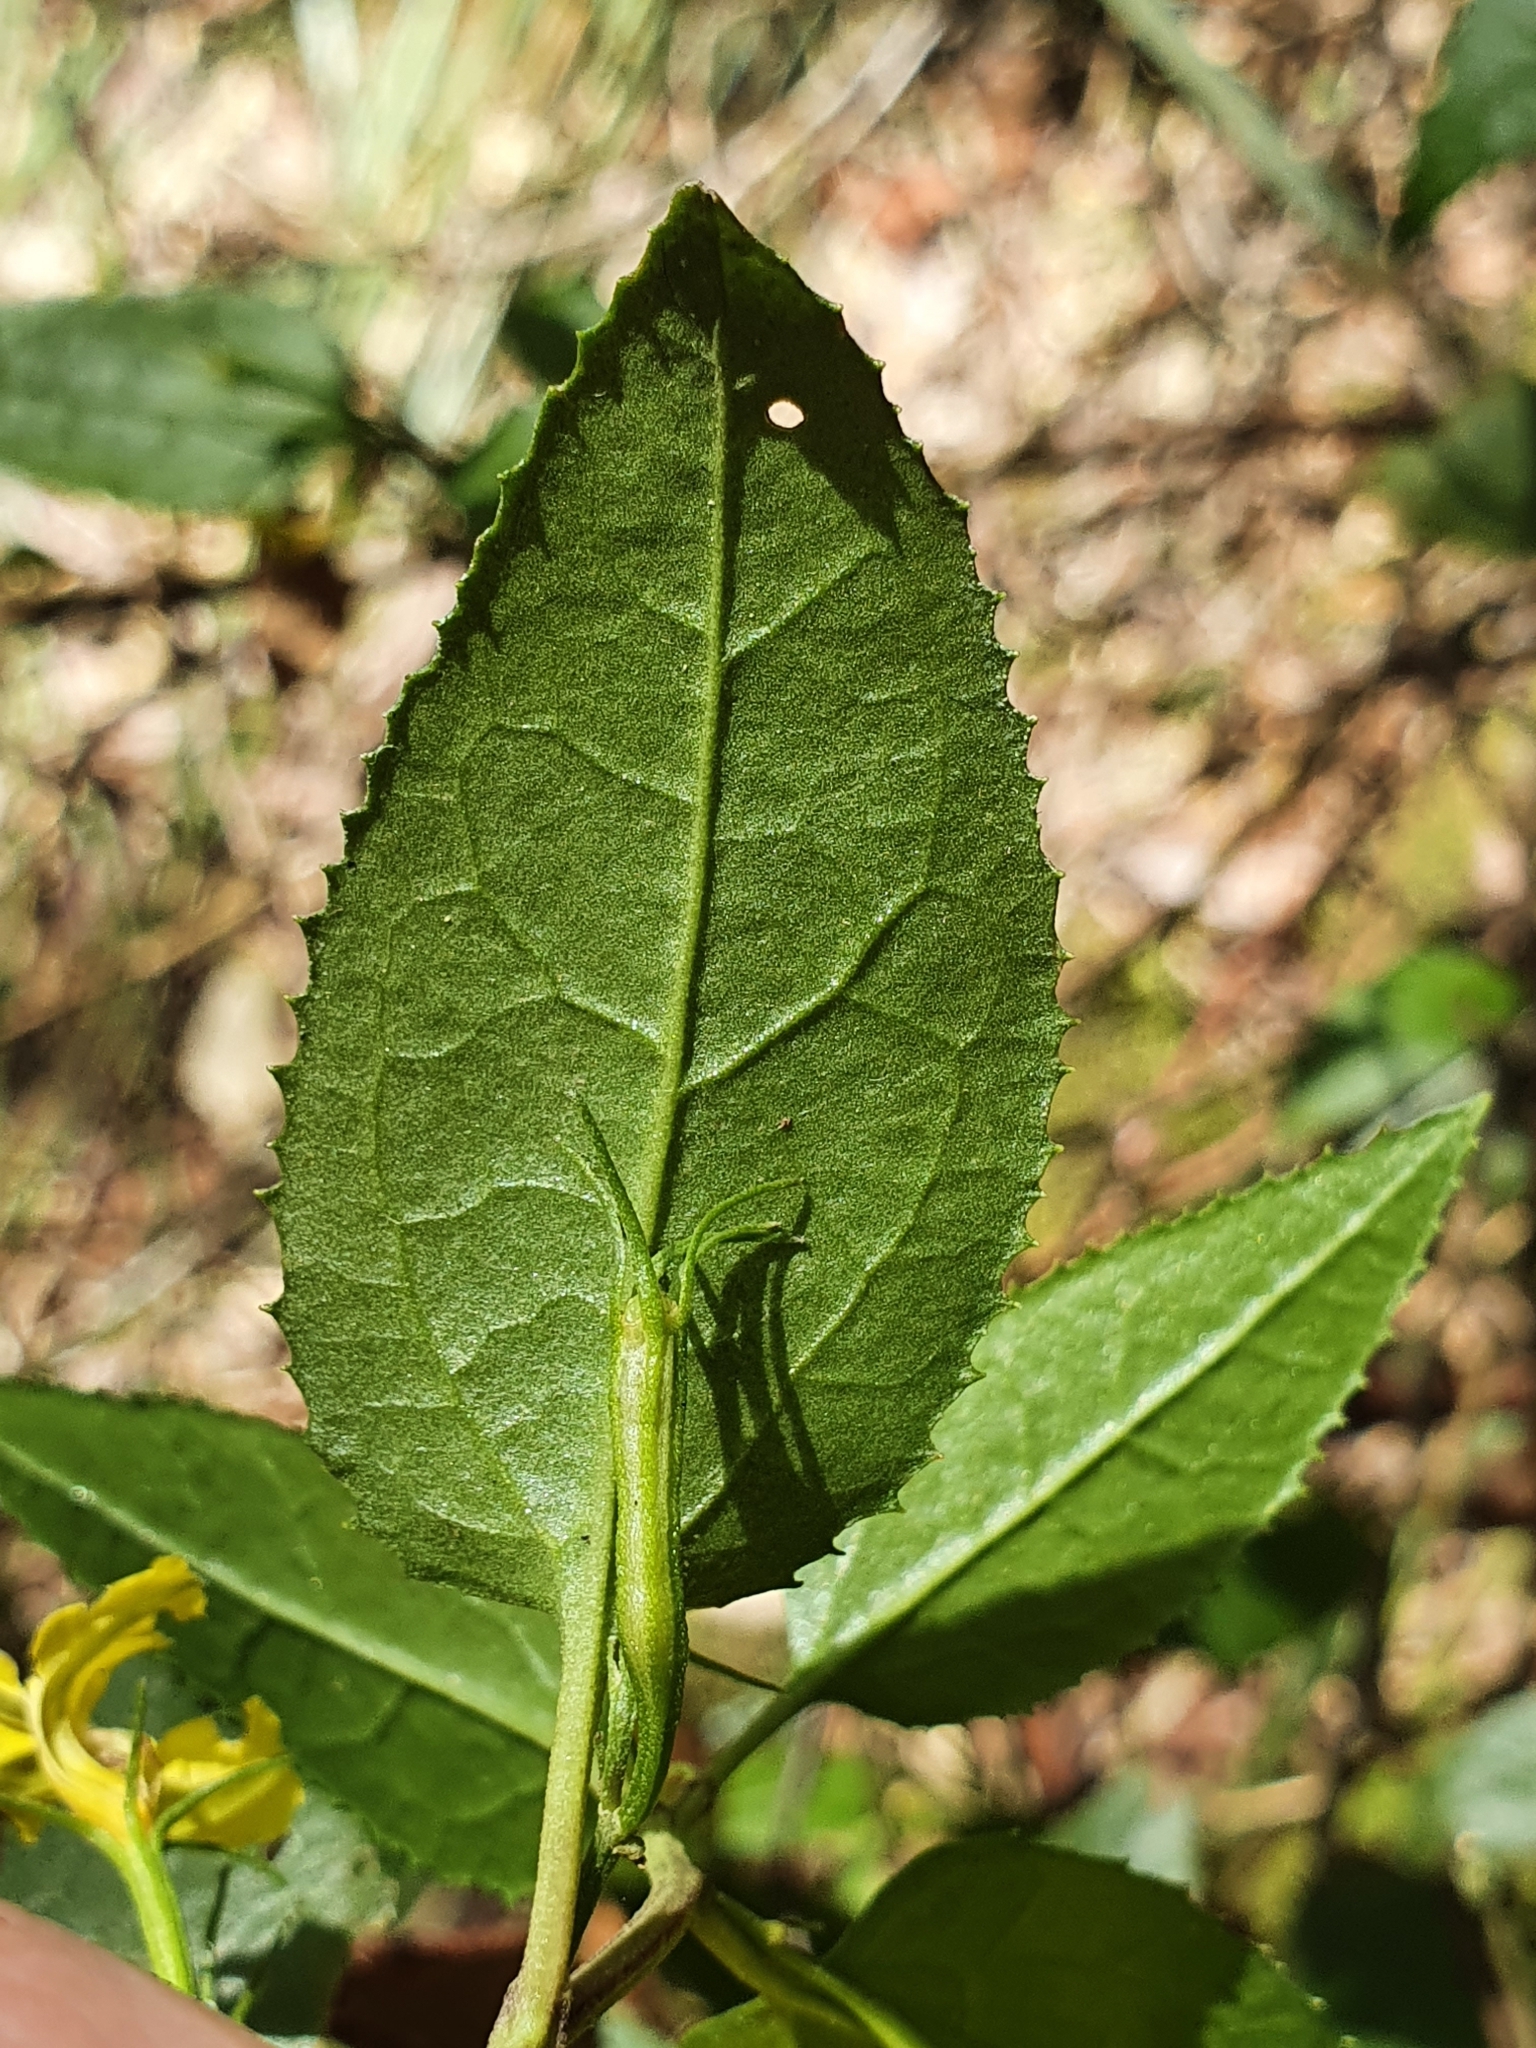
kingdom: Plantae
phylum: Tracheophyta
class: Magnoliopsida
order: Asterales
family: Goodeniaceae
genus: Goodenia
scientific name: Goodenia ovata
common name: Hop goodenia
